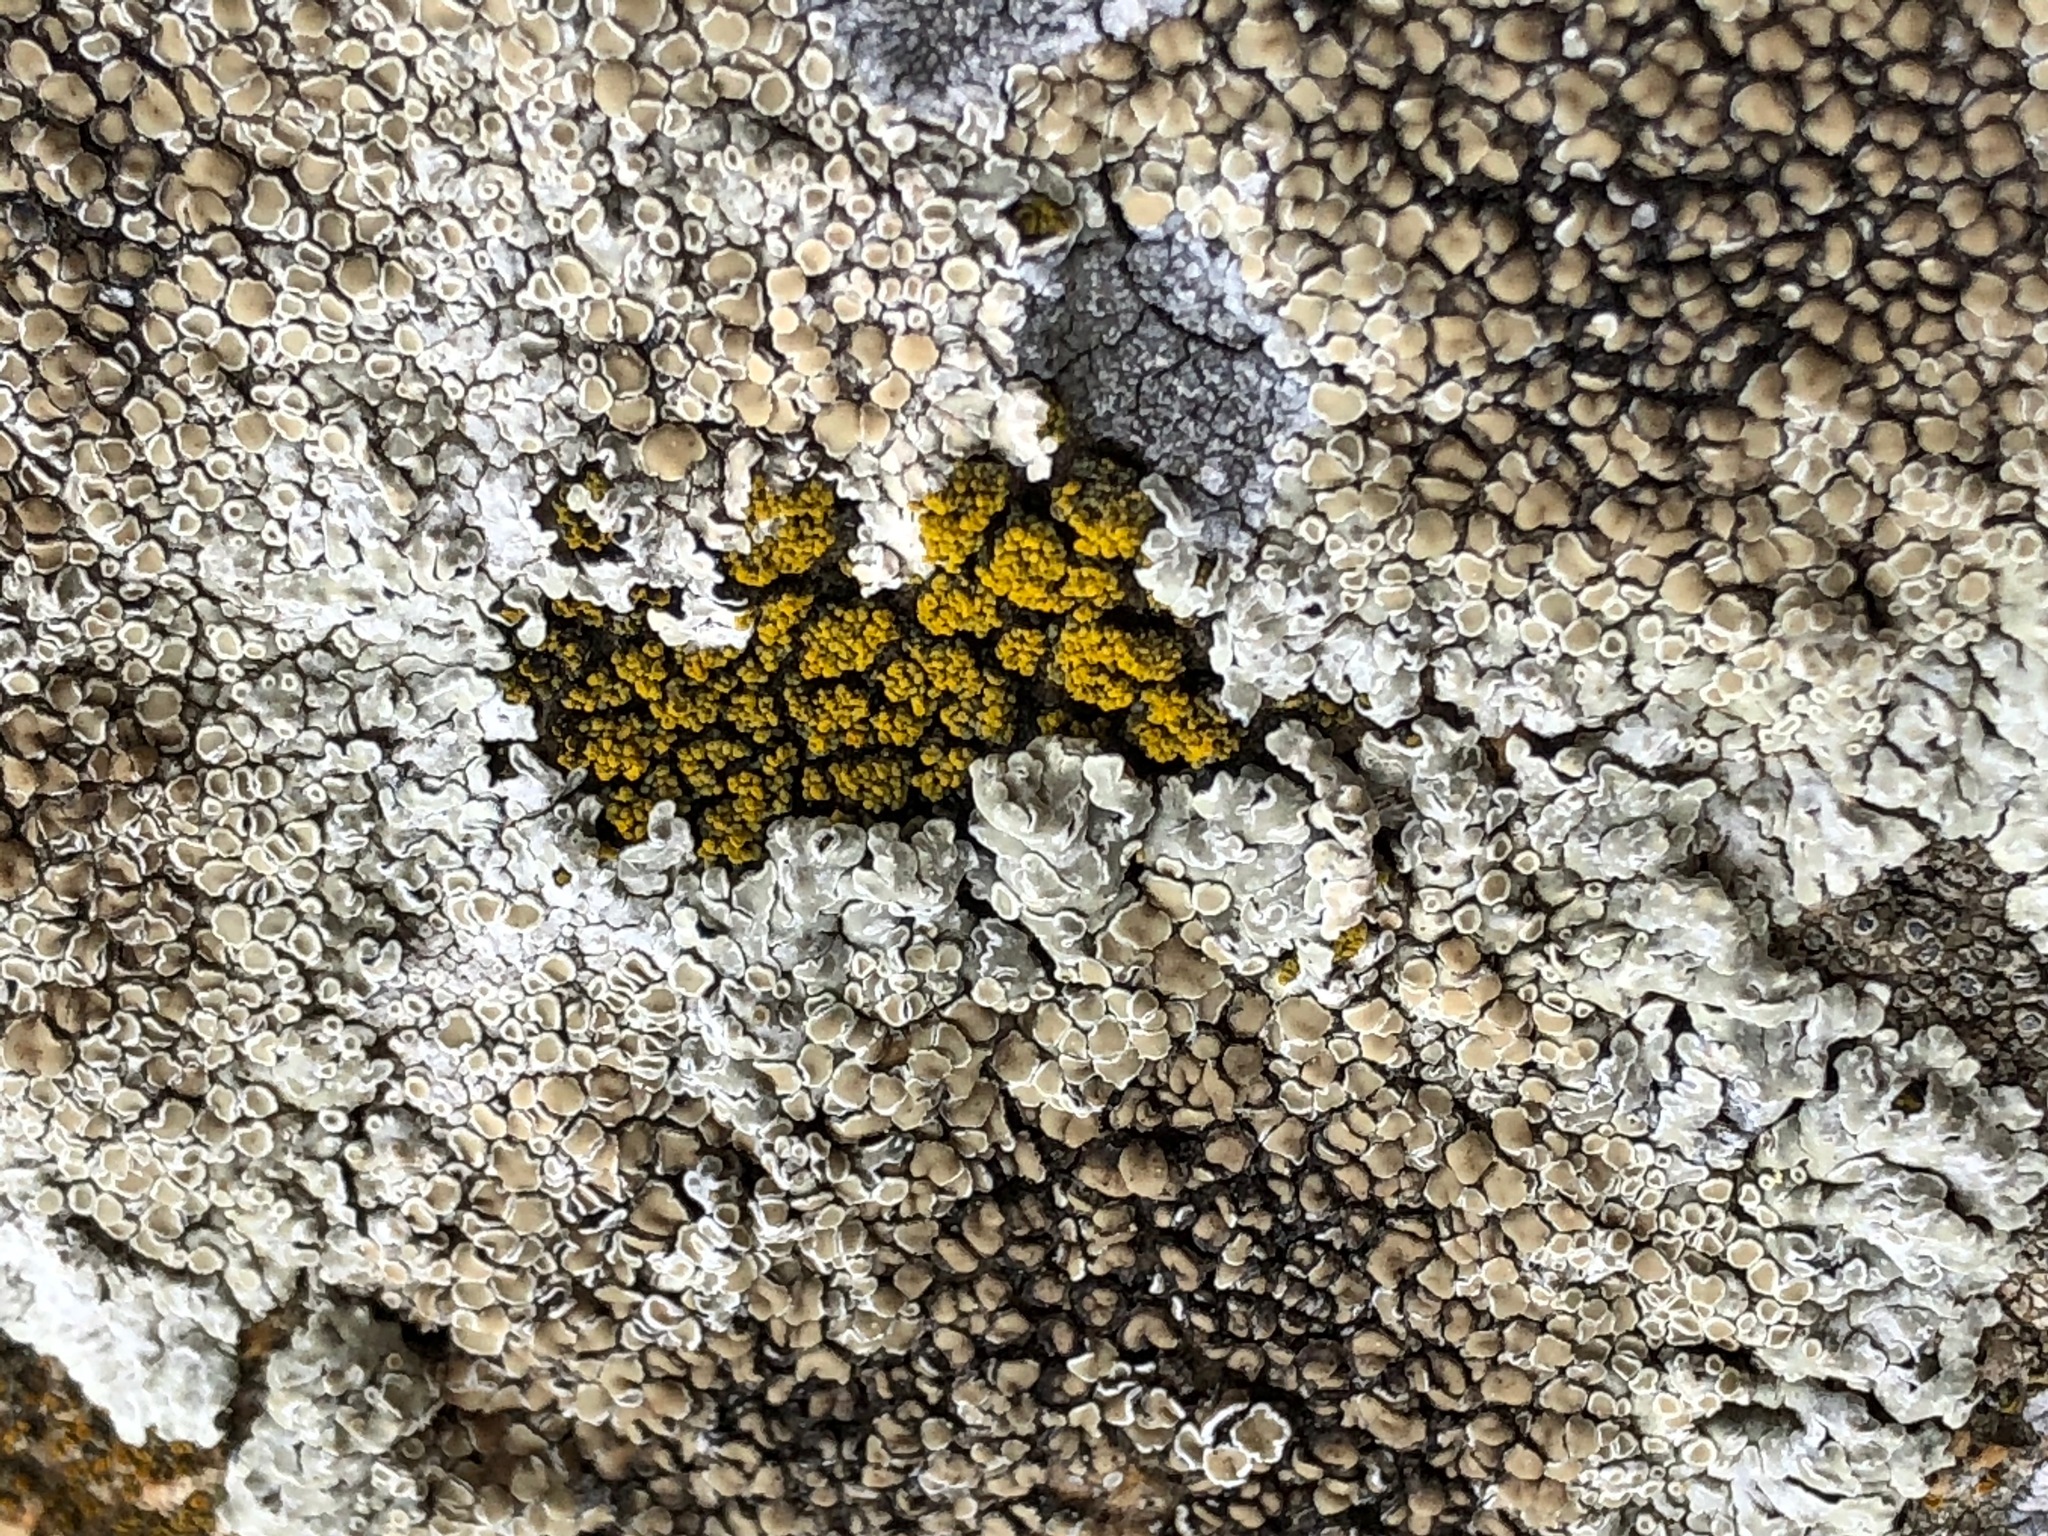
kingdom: Fungi
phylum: Ascomycota
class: Candelariomycetes
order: Candelariales
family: Candelariaceae
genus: Candelariella
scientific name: Candelariella vitellina
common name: Common goldspeck
